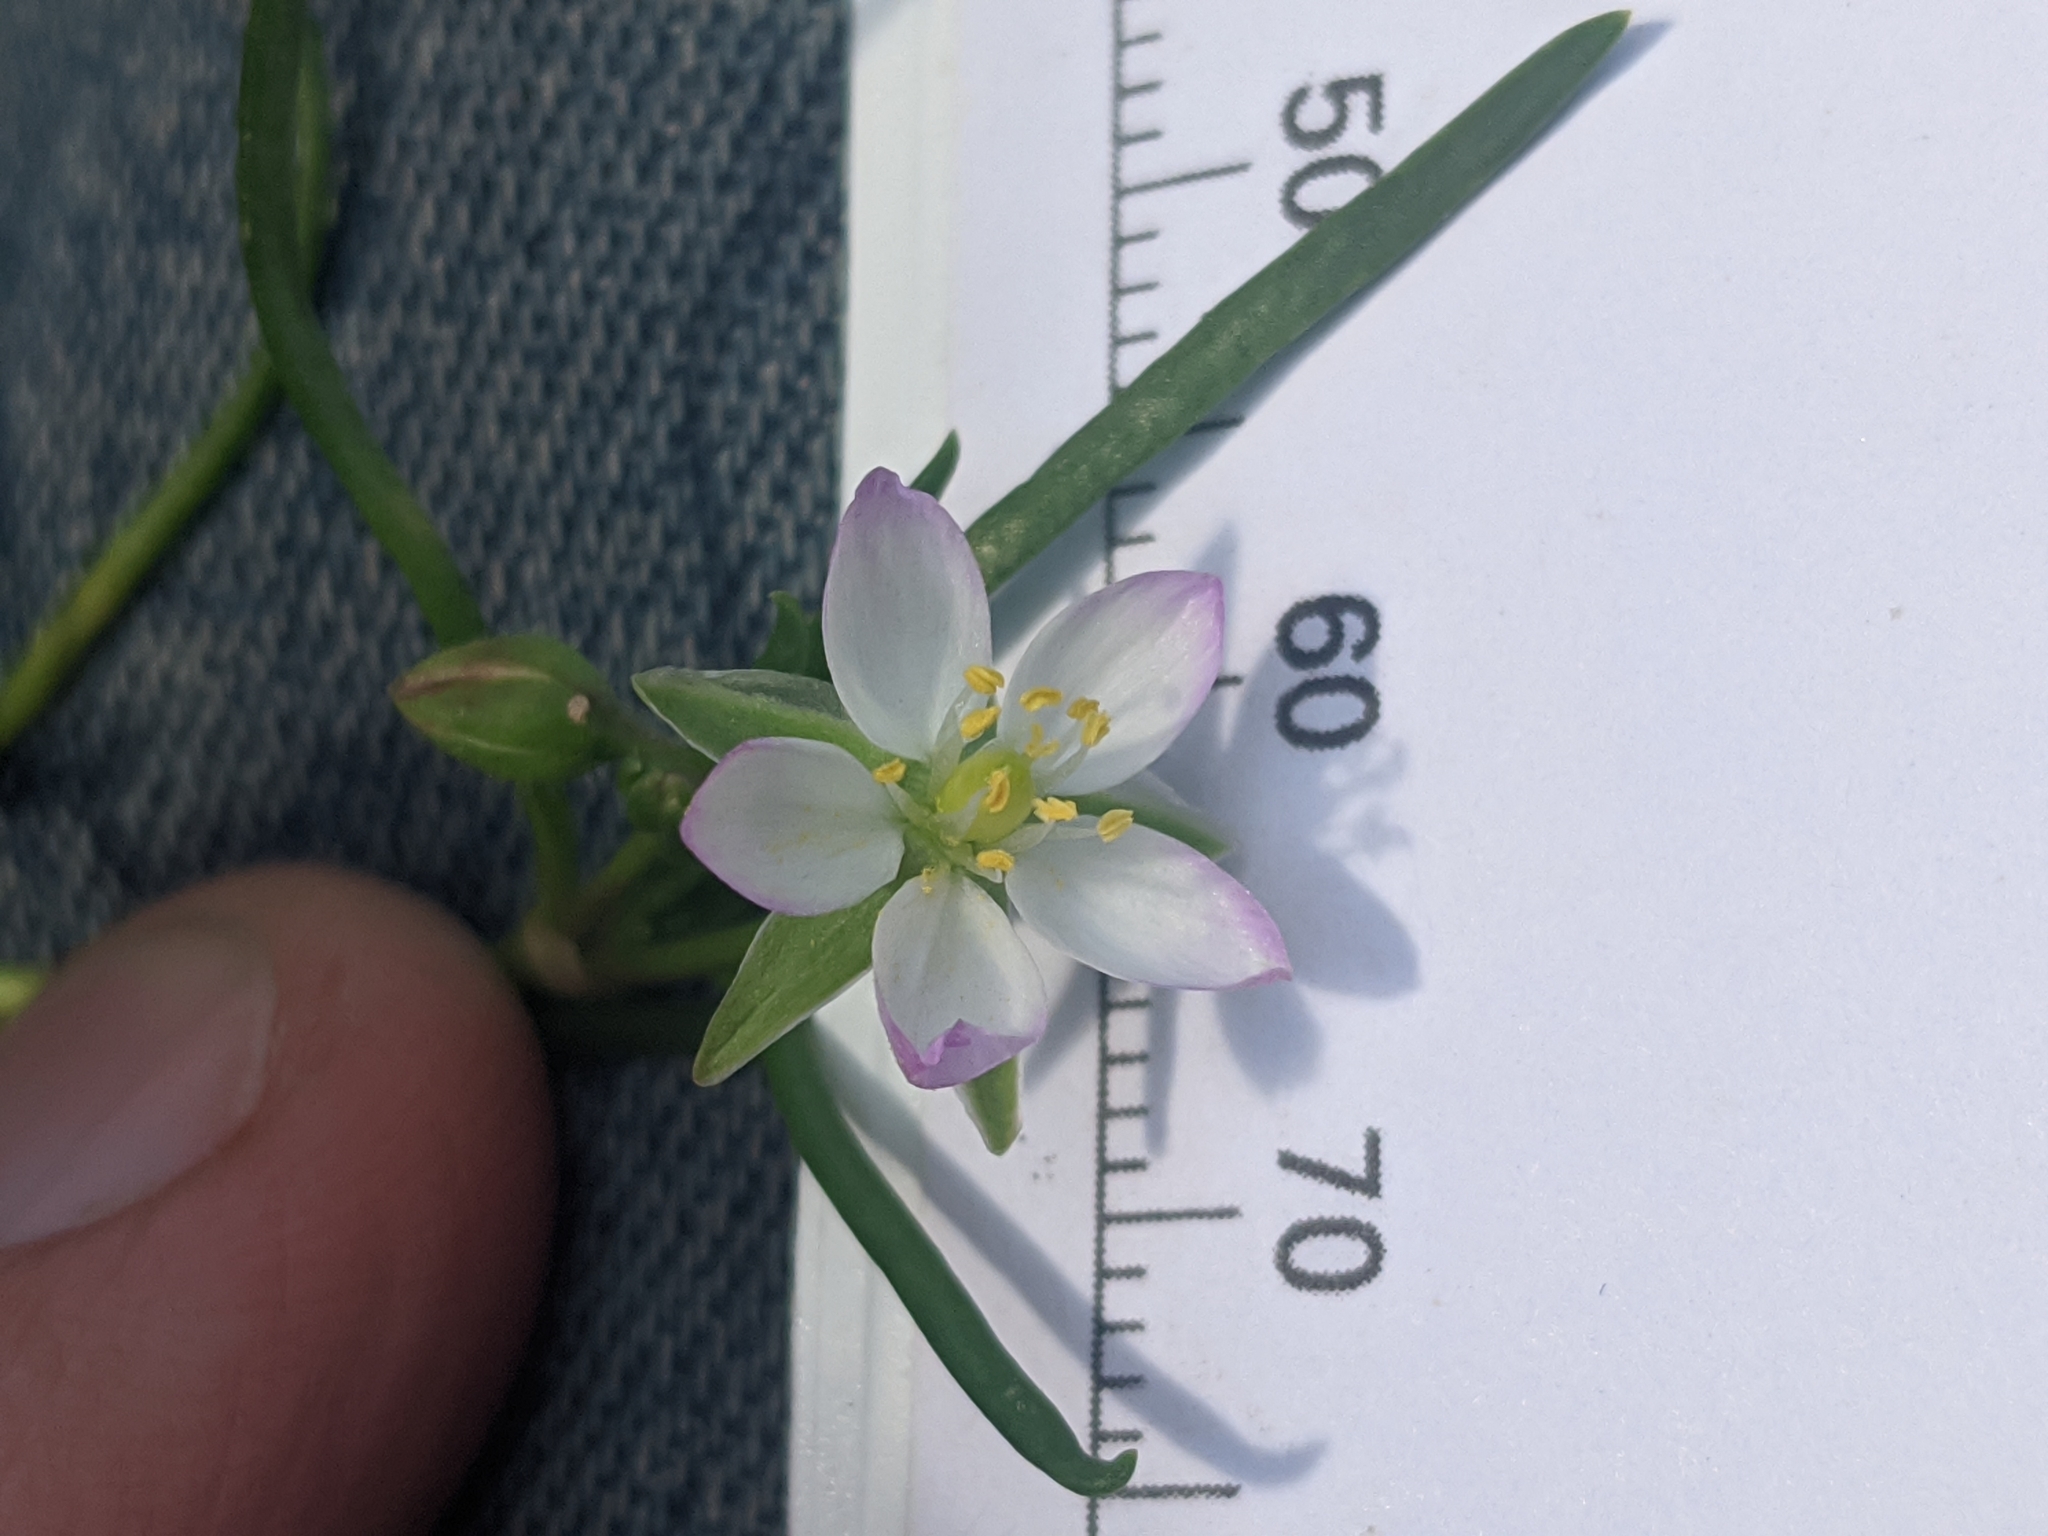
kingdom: Plantae
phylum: Tracheophyta
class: Magnoliopsida
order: Caryophyllales
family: Caryophyllaceae
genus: Spergularia
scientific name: Spergularia media
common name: Greater sea-spurrey
